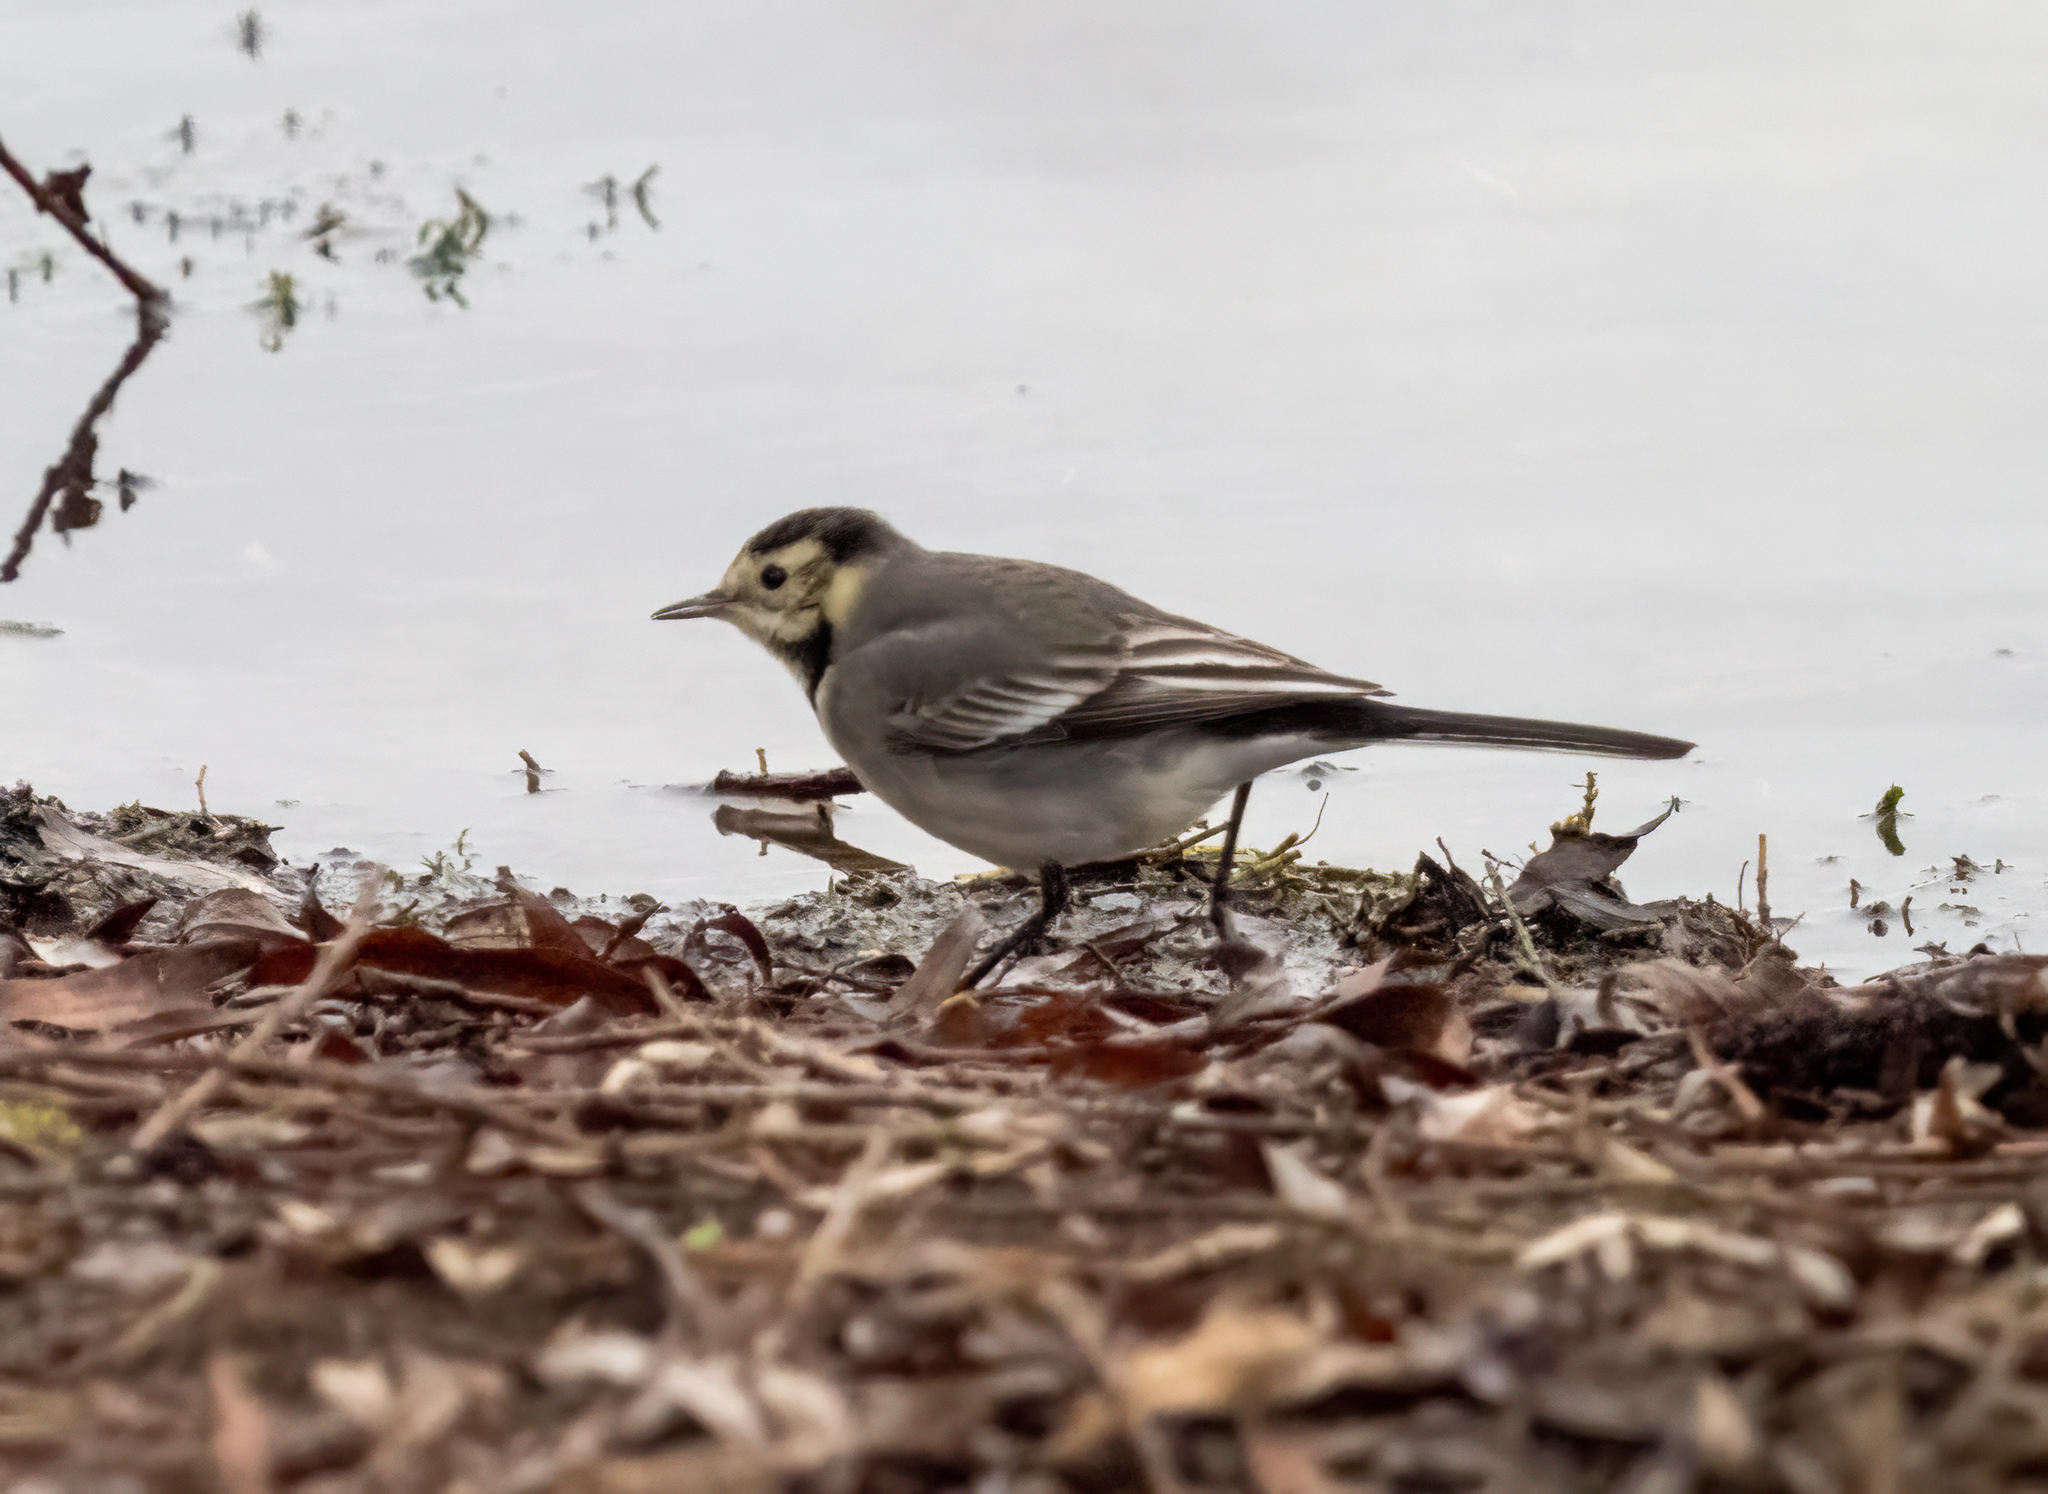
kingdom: Animalia
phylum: Chordata
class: Aves
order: Passeriformes
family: Motacillidae
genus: Motacilla
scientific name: Motacilla alba
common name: White wagtail
